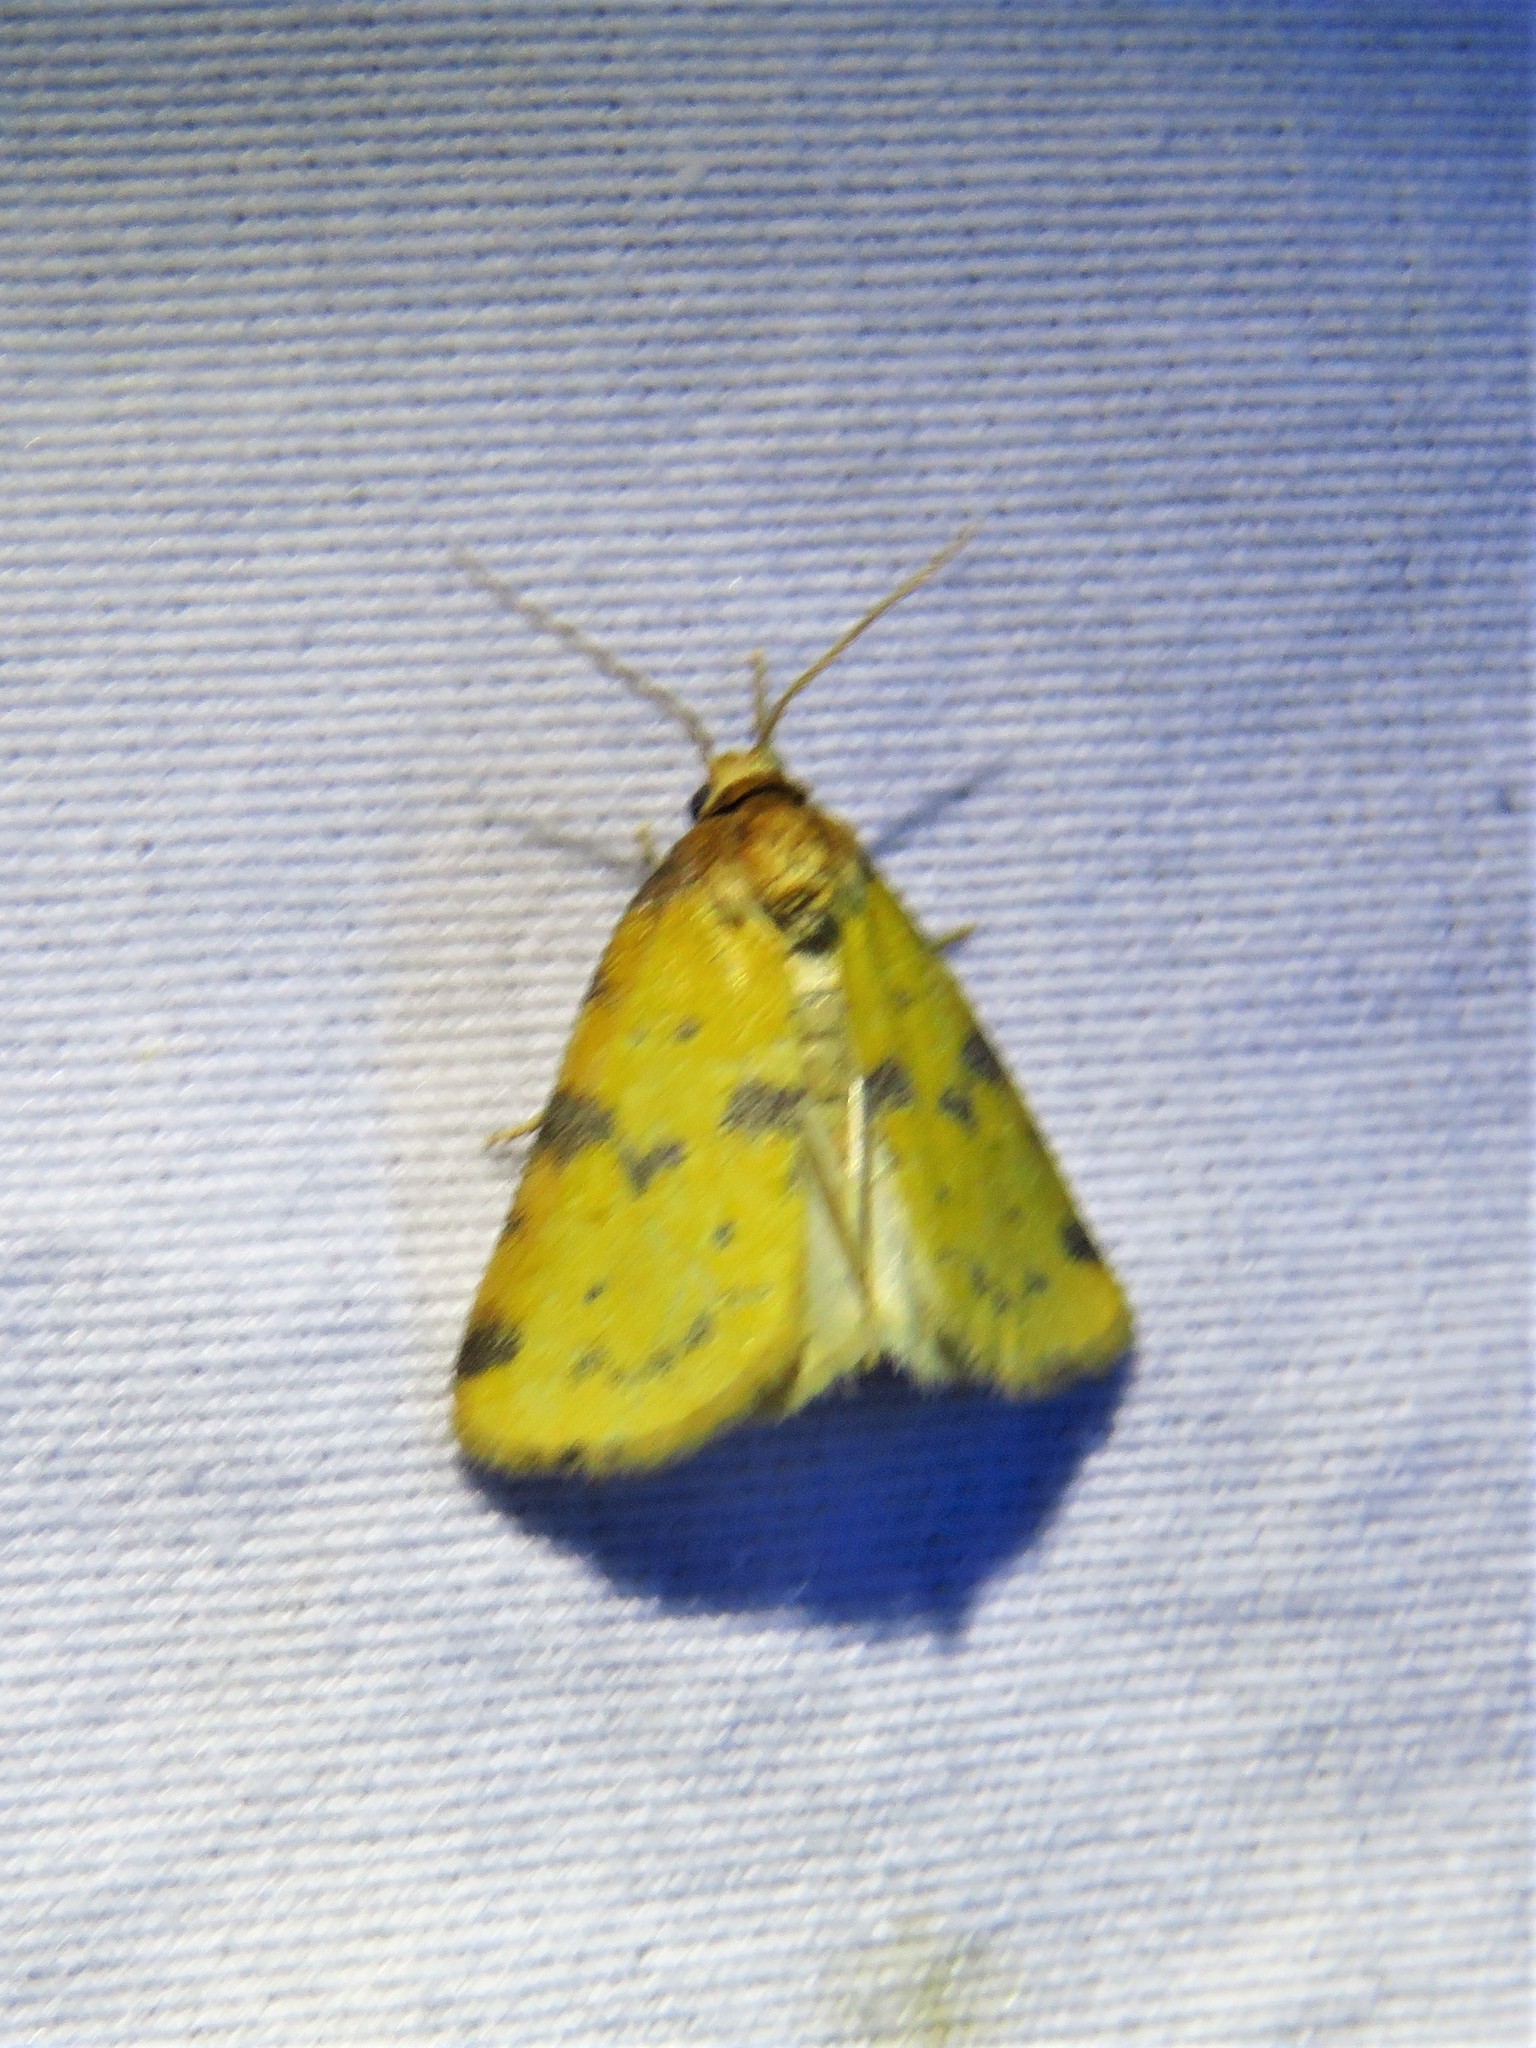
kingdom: Animalia
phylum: Arthropoda
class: Insecta
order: Lepidoptera
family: Noctuidae
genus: Azenia
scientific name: Azenia obtusa
